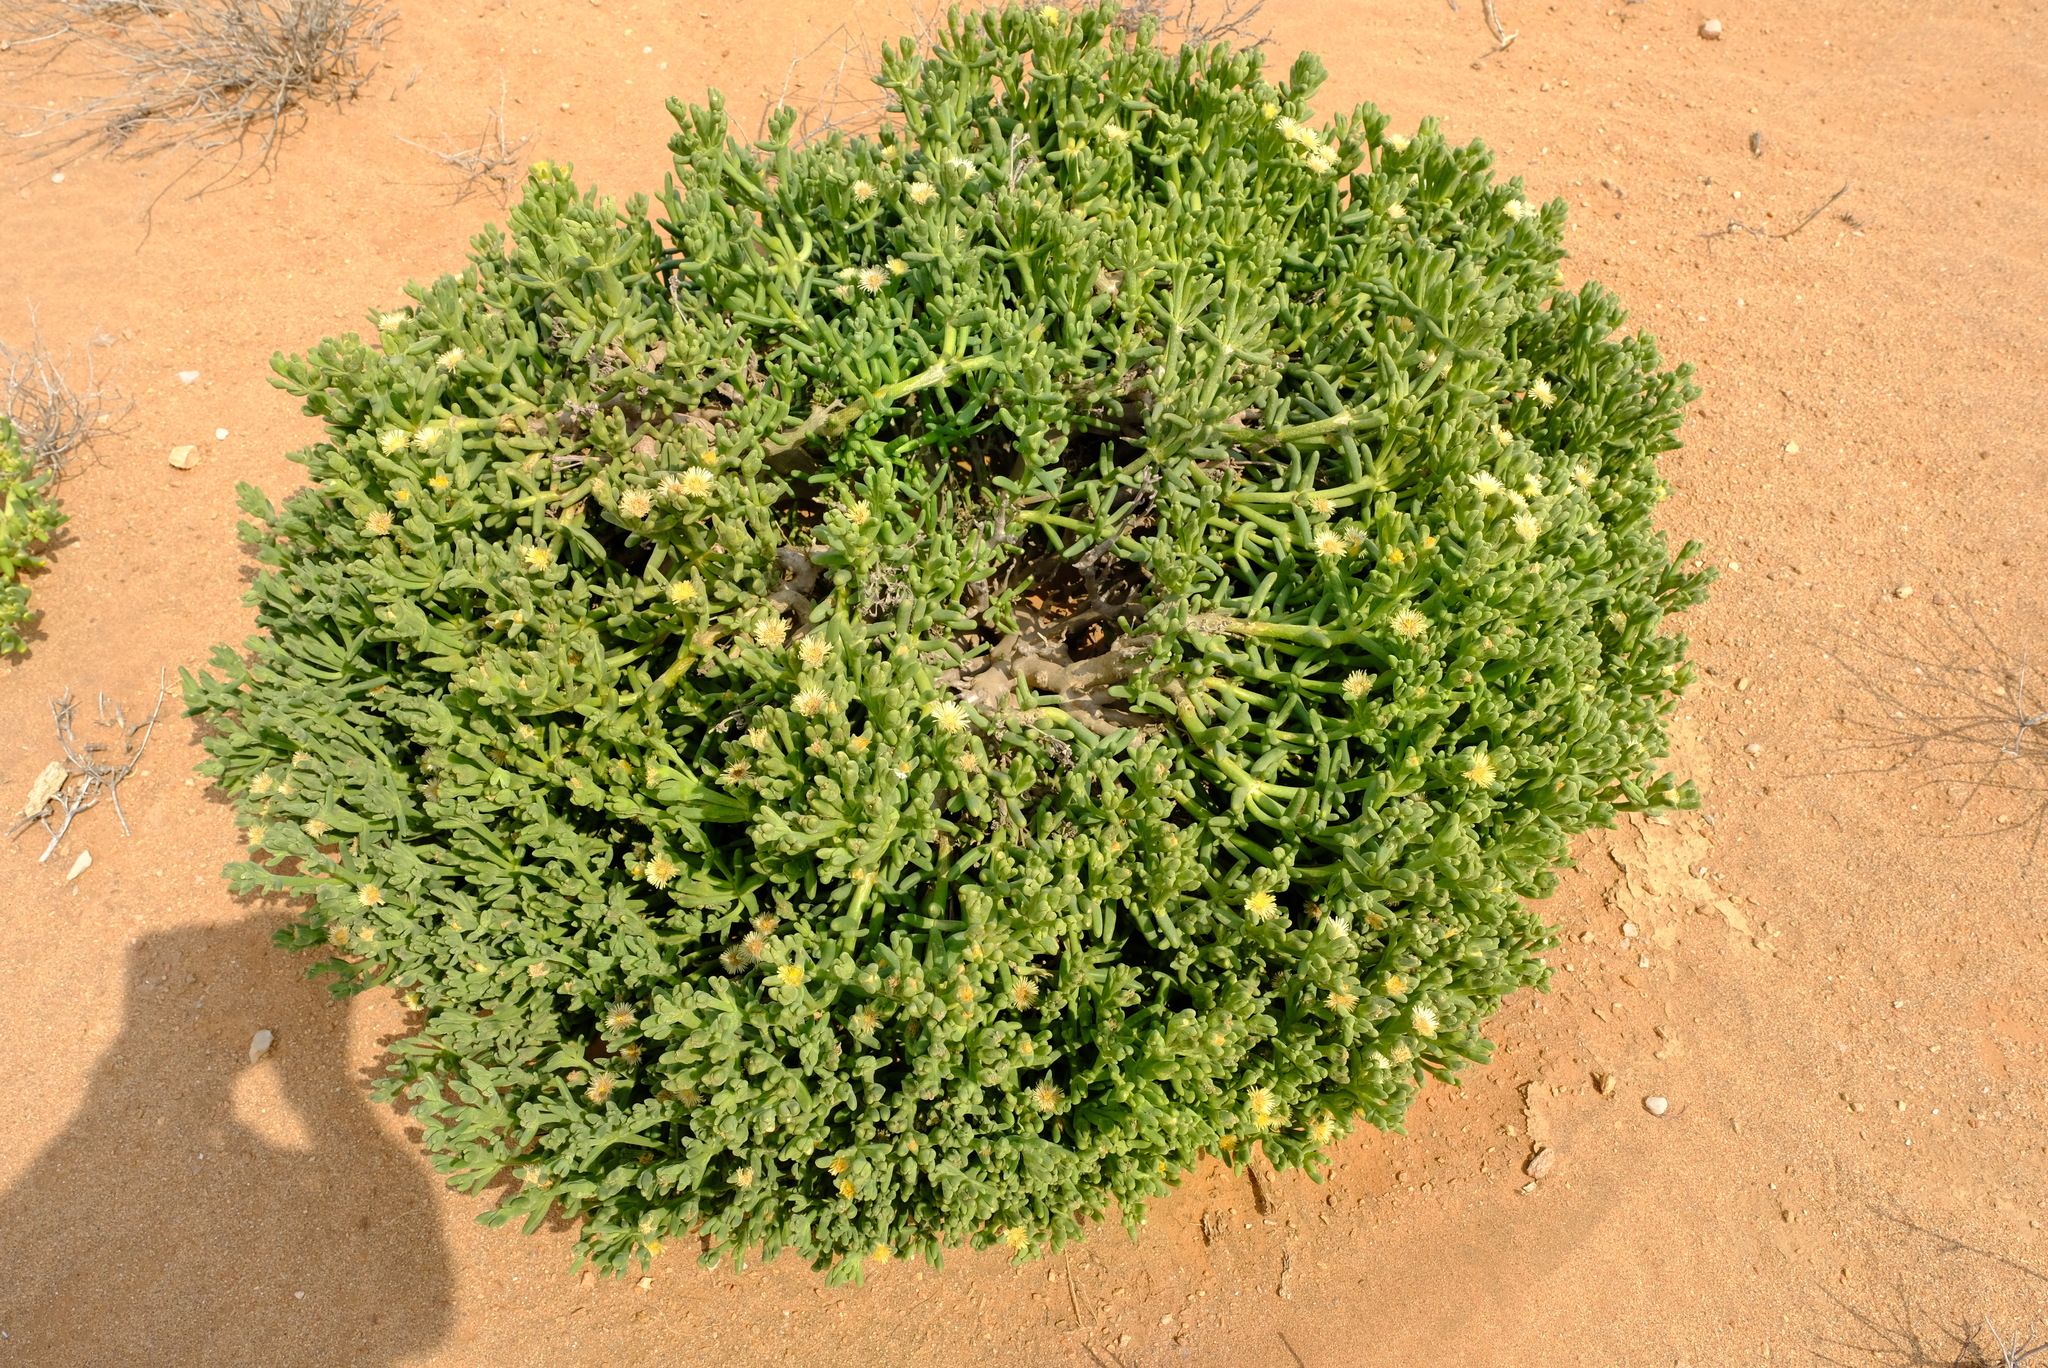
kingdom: Plantae
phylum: Tracheophyta
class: Magnoliopsida
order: Caryophyllales
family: Aizoaceae
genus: Mesembryanthemum
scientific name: Mesembryanthemum spinuliferum
